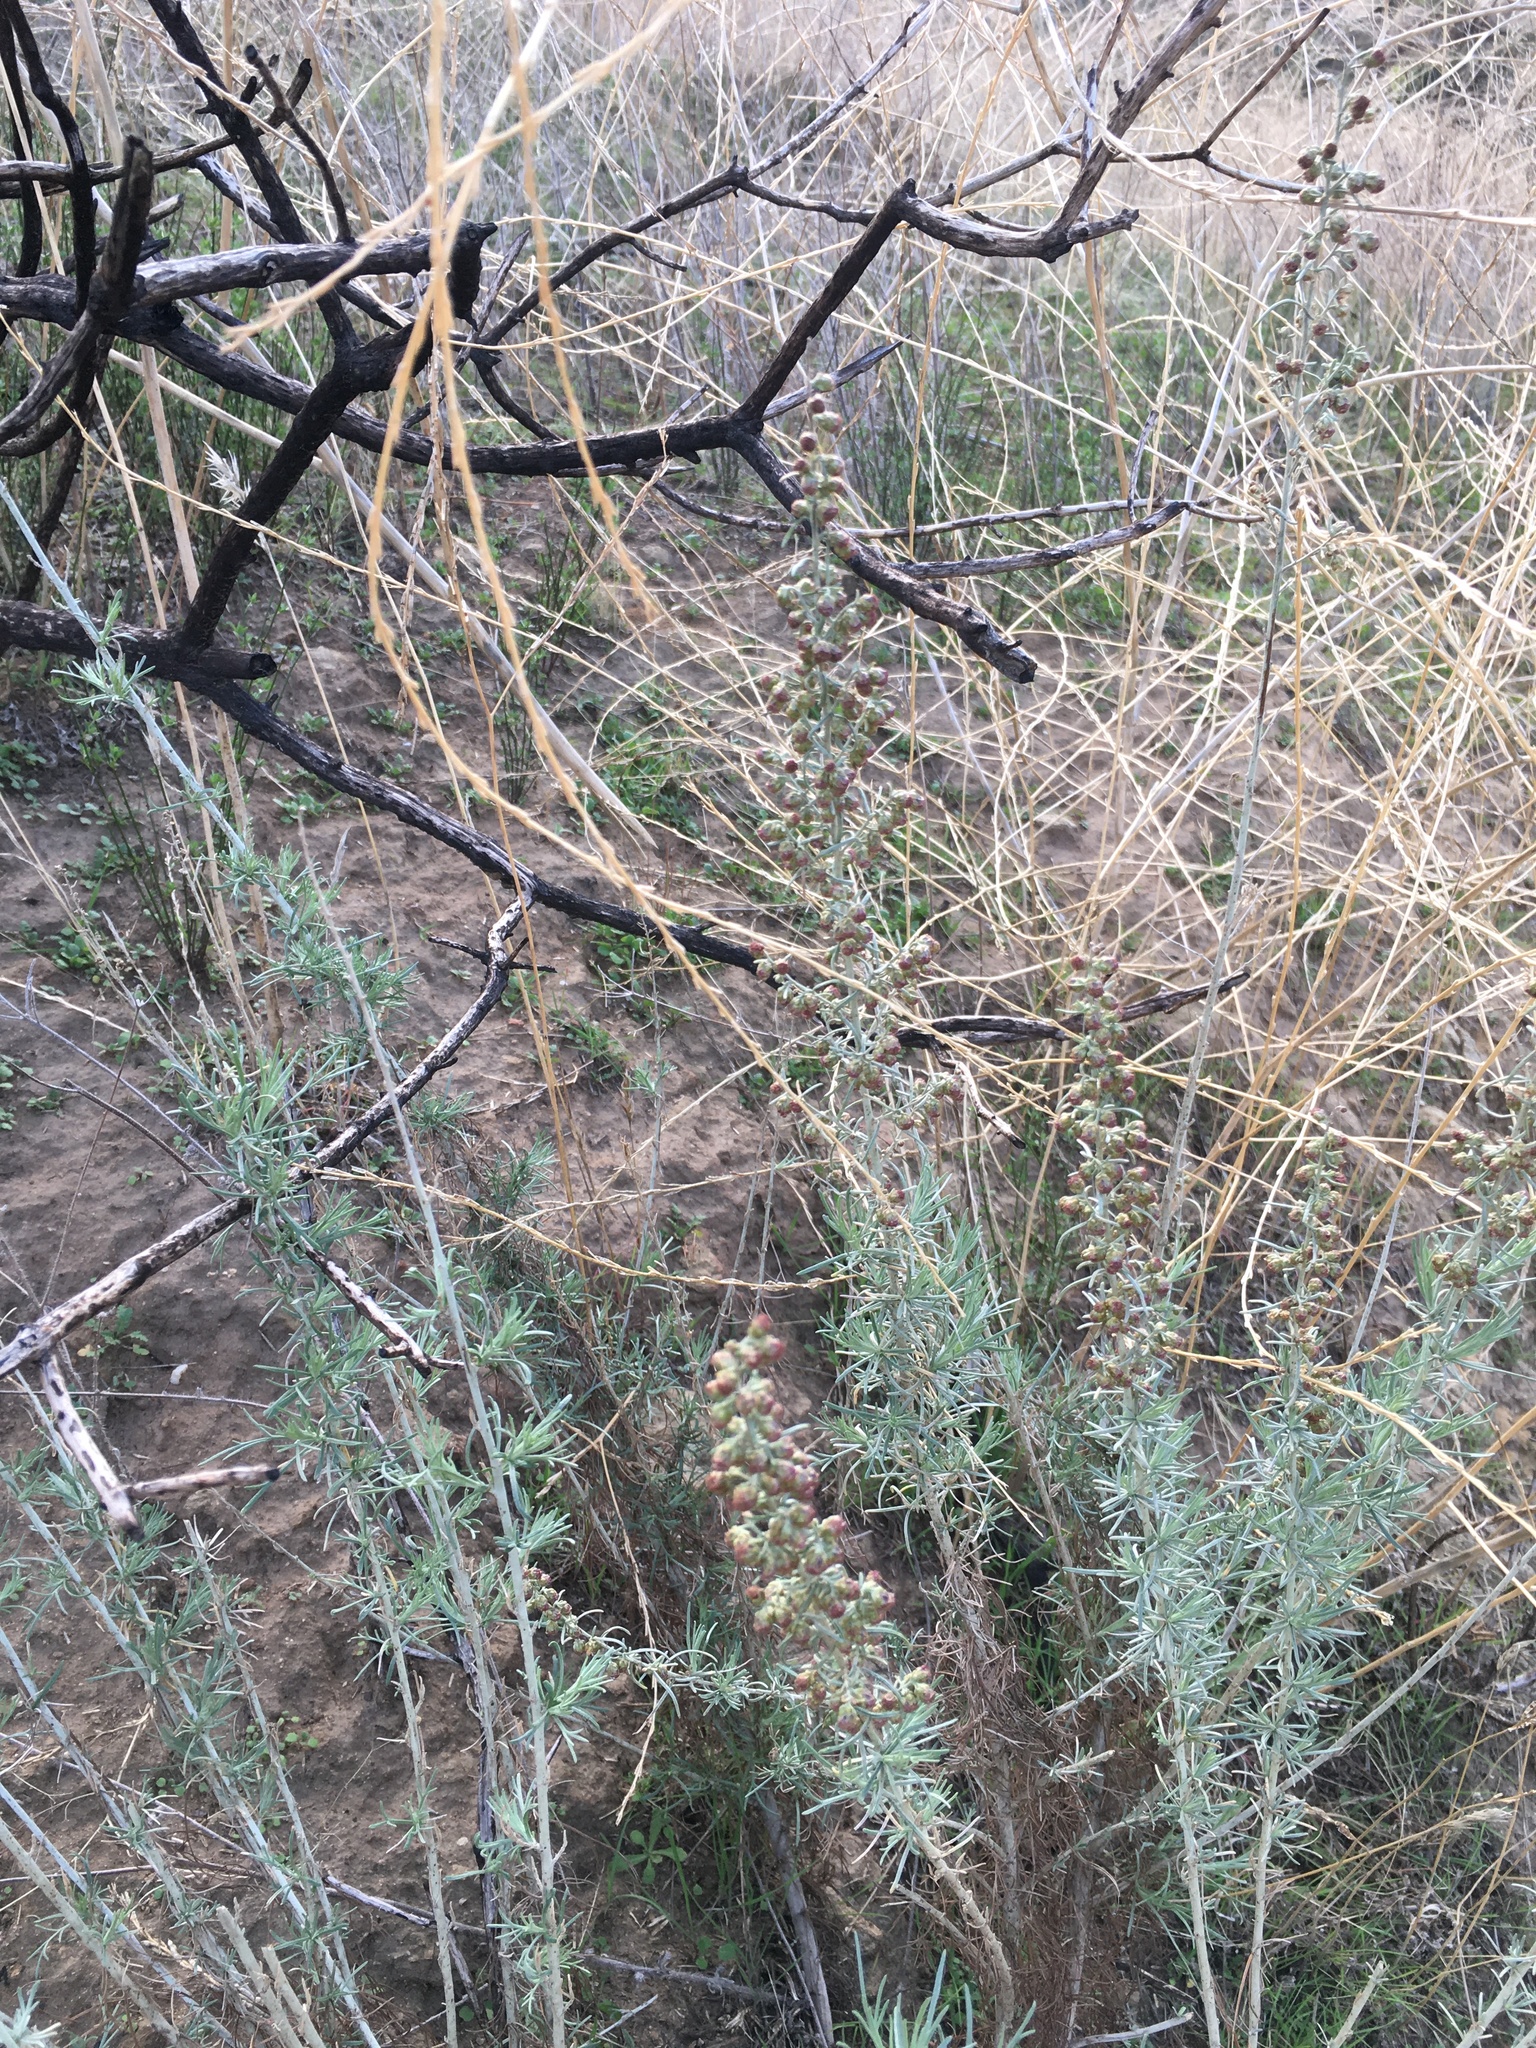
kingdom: Plantae
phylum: Tracheophyta
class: Magnoliopsida
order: Asterales
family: Asteraceae
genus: Artemisia
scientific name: Artemisia californica
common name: California sagebrush
